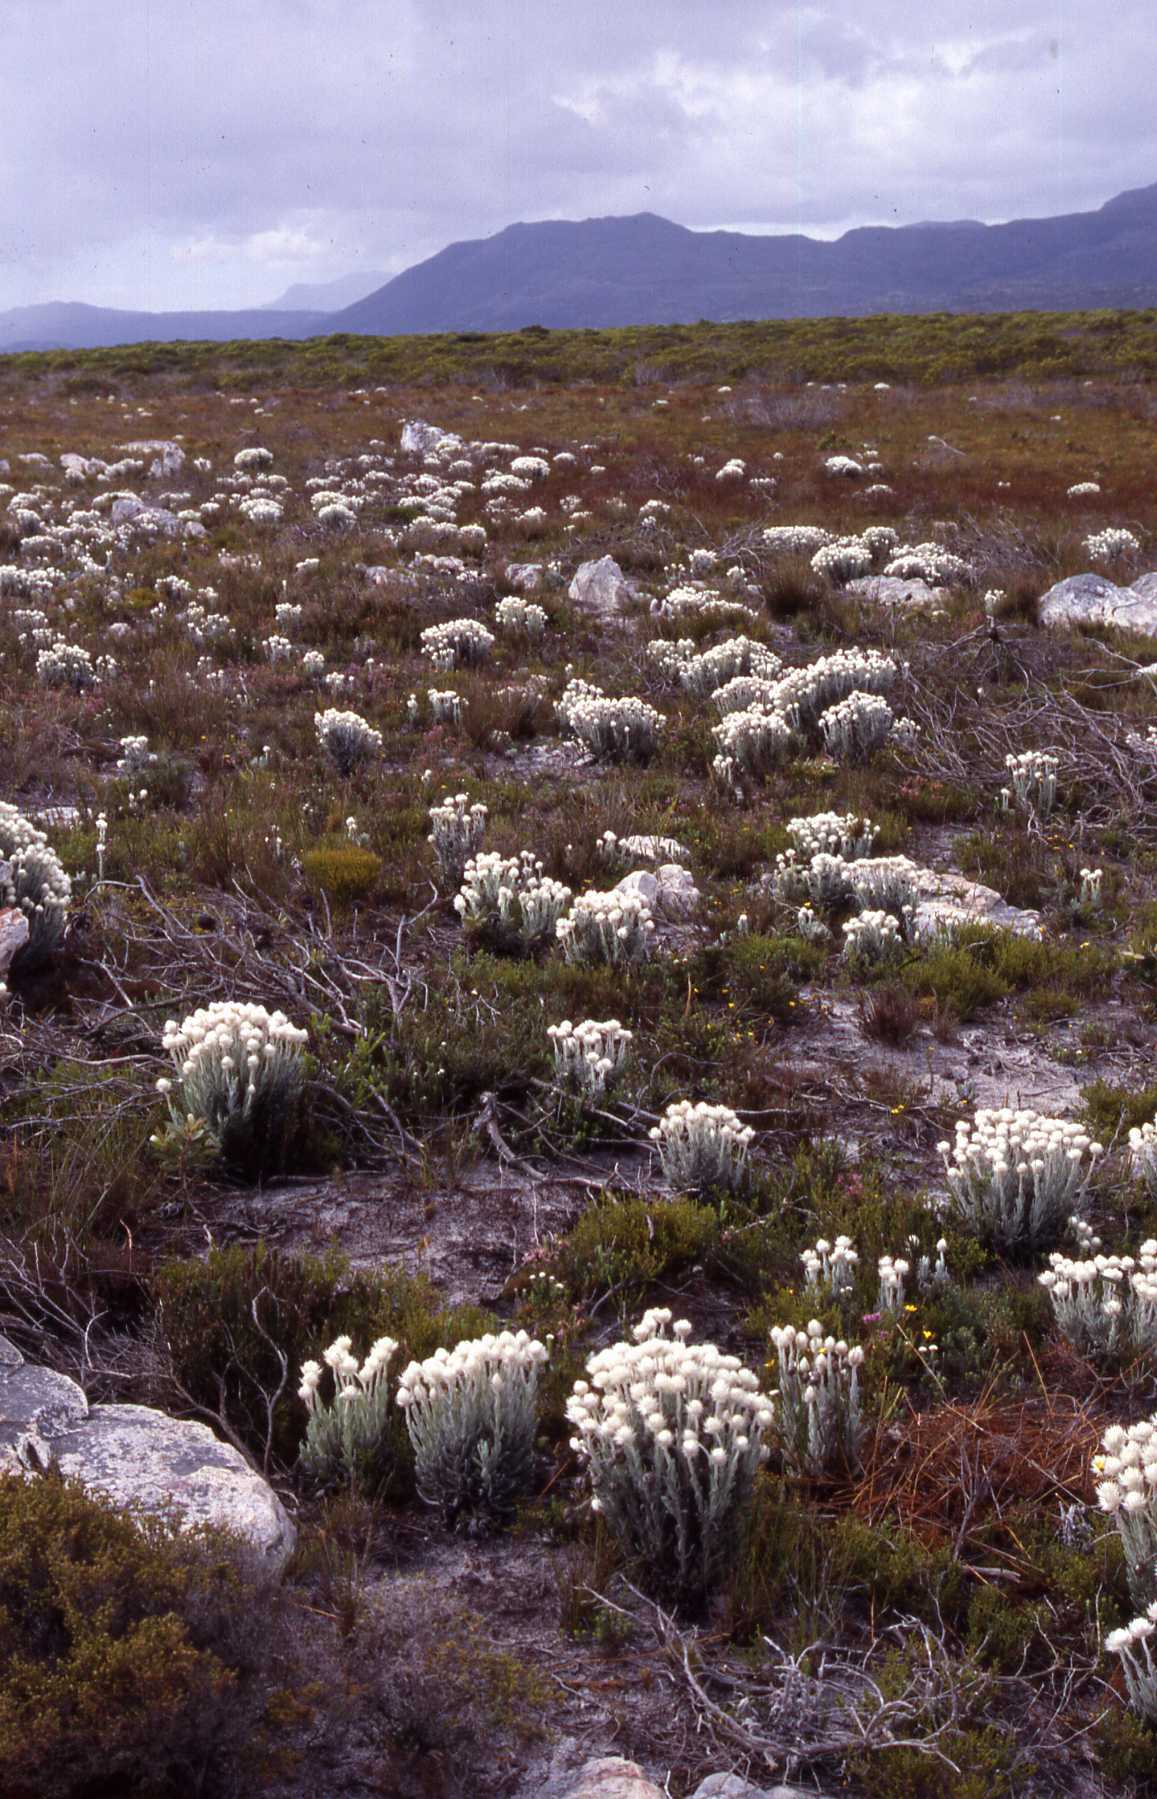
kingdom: Plantae
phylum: Tracheophyta
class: Magnoliopsida
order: Asterales
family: Asteraceae
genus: Syncarpha
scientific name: Syncarpha vestita
